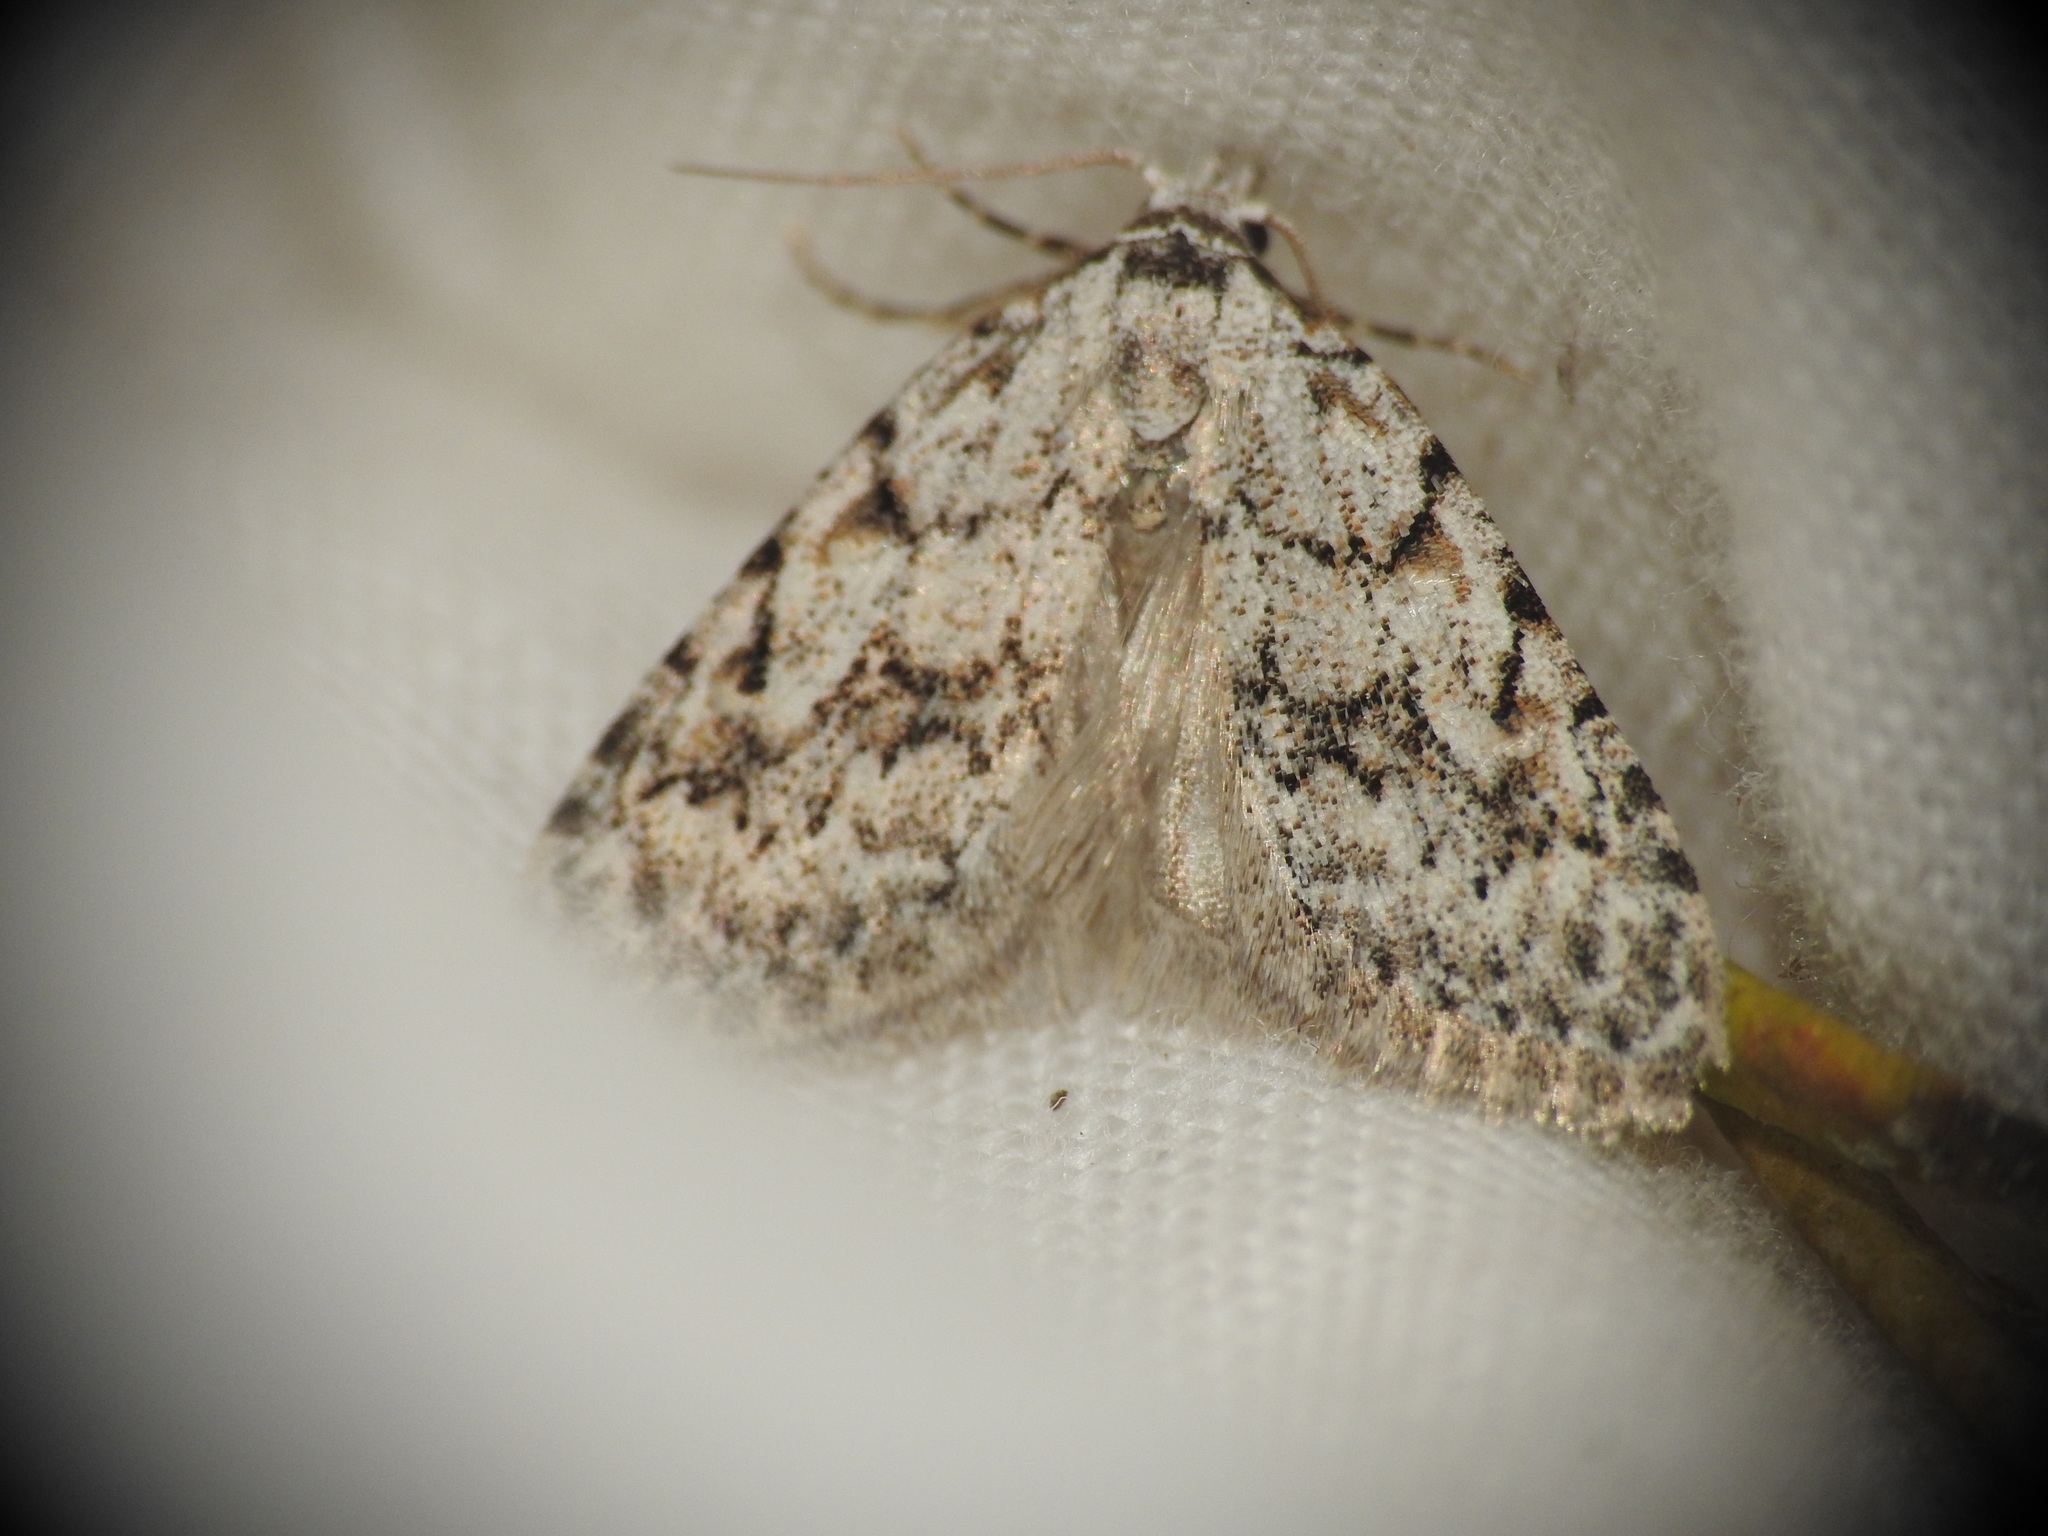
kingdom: Animalia
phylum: Arthropoda
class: Insecta
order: Lepidoptera
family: Nolidae
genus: Nola
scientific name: Nola cicatricalis
